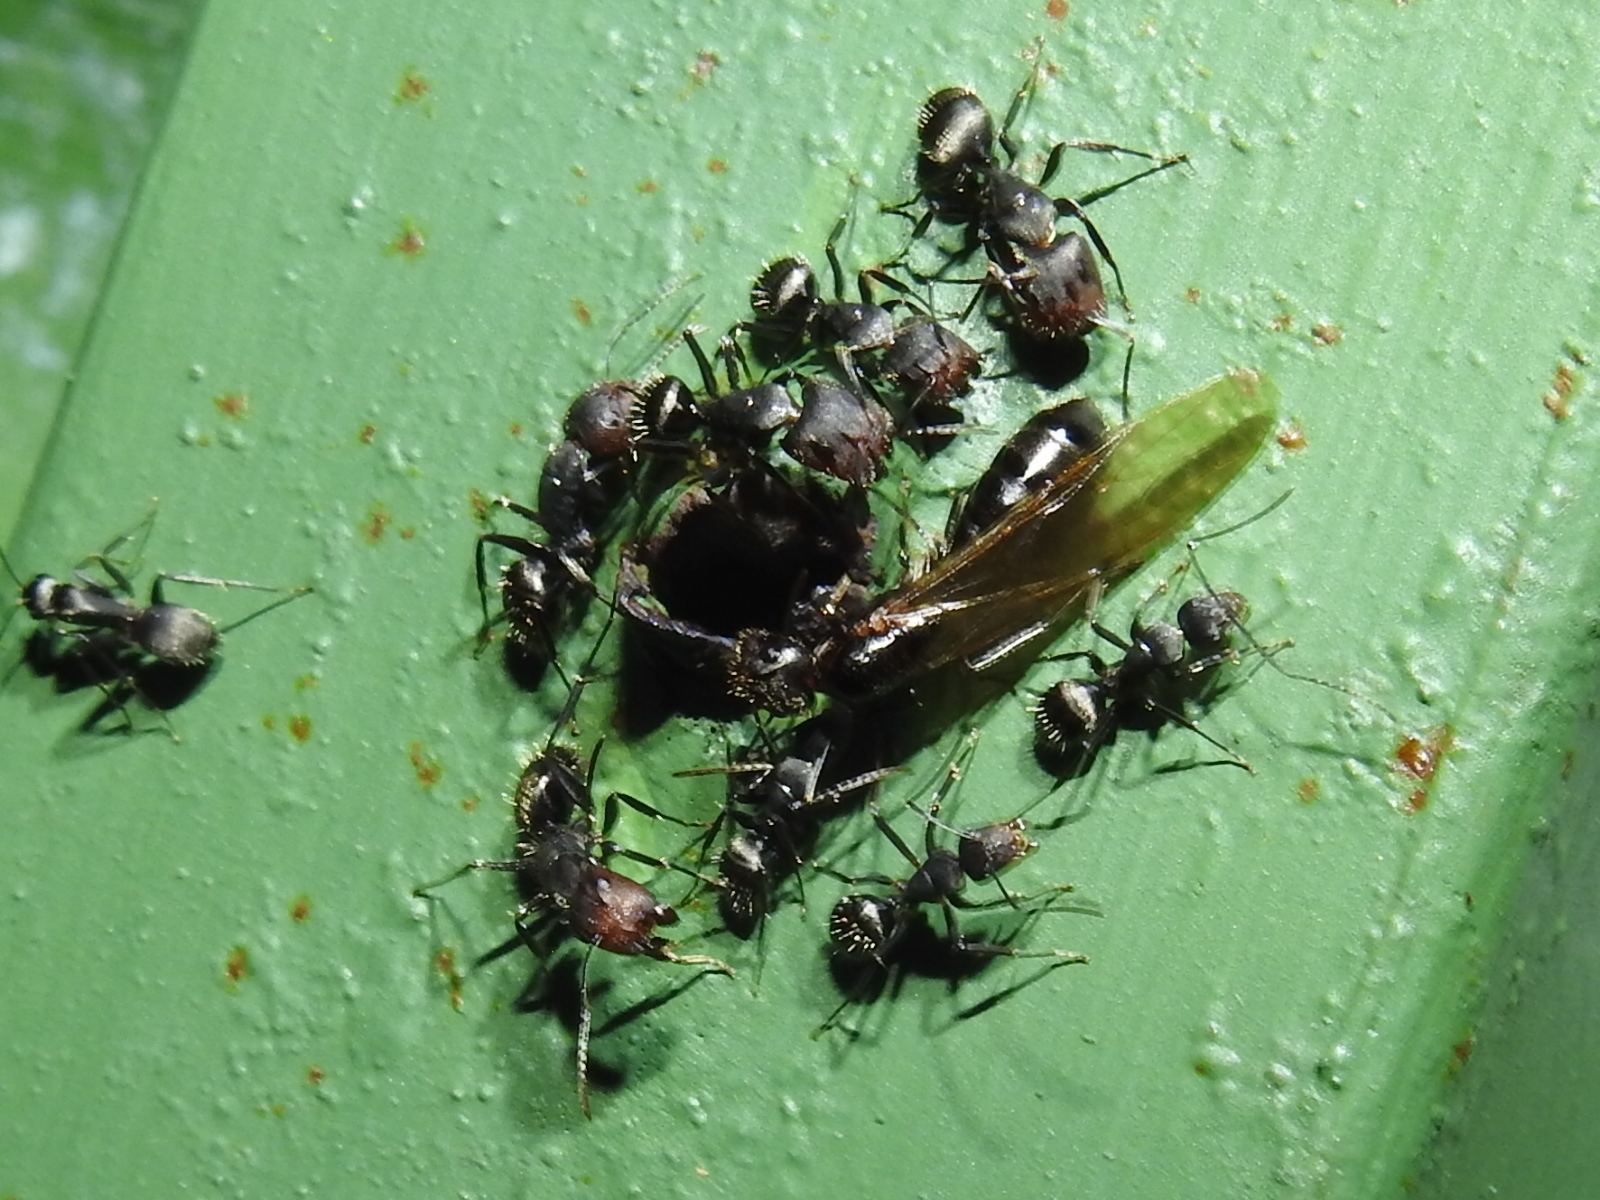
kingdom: Animalia
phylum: Arthropoda
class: Insecta
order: Hymenoptera
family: Formicidae
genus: Camponotus
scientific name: Camponotus novogranadensis
